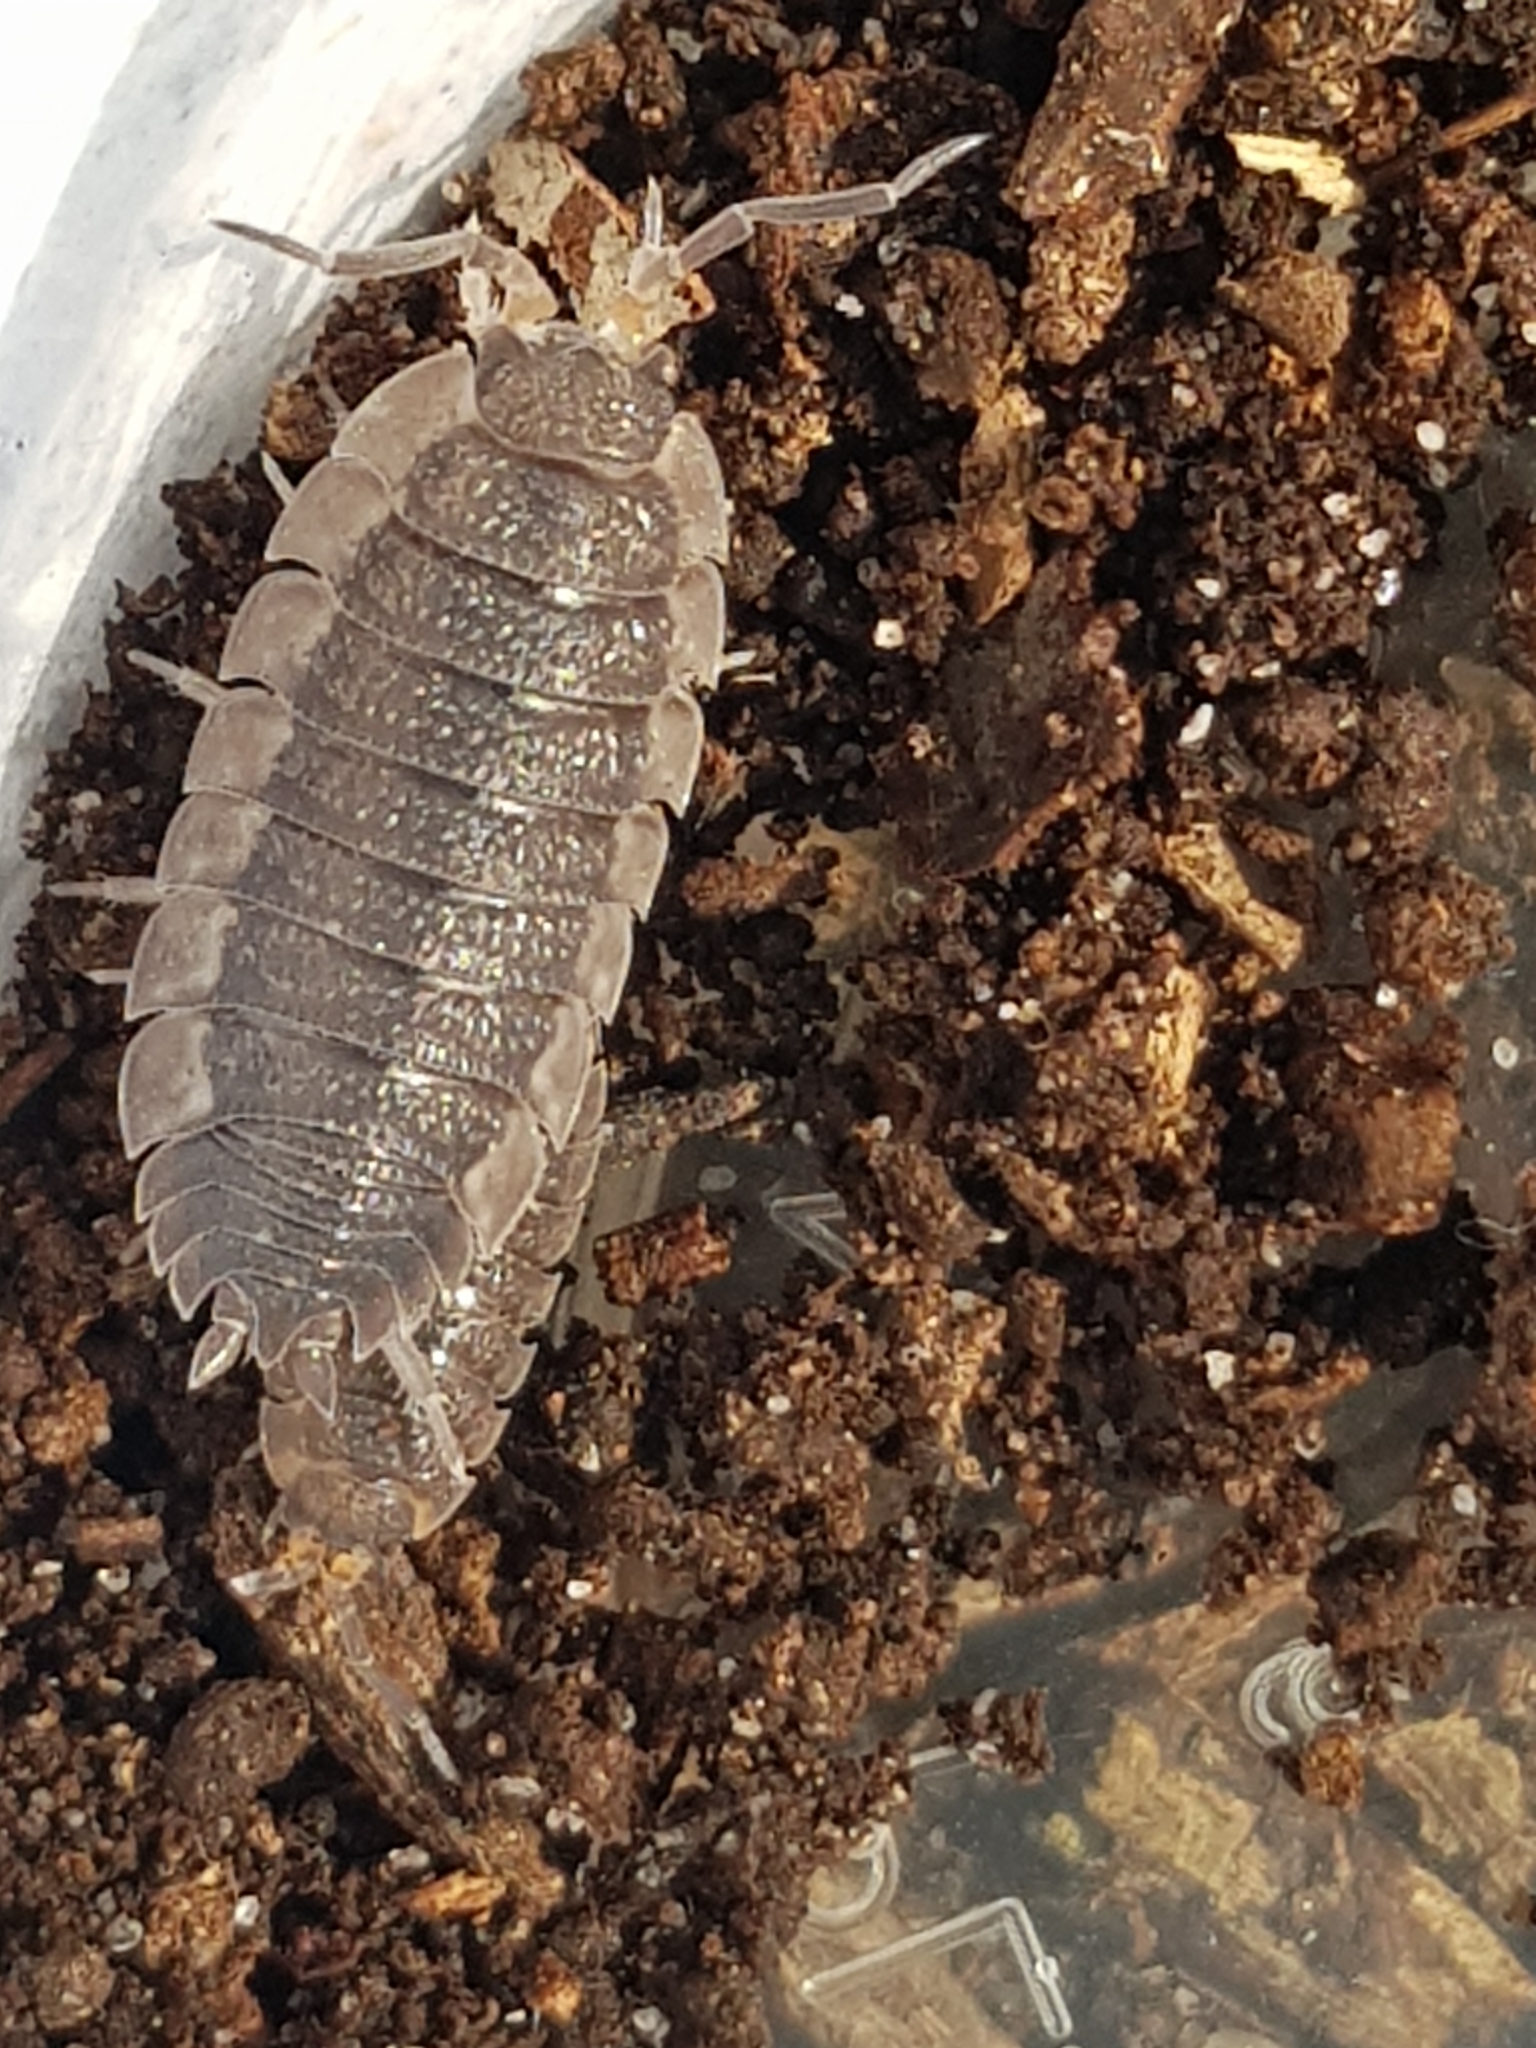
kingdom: Animalia
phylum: Arthropoda
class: Malacostraca
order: Isopoda
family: Porcellionidae
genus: Porcellio
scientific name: Porcellio scaber
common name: Common rough woodlouse
